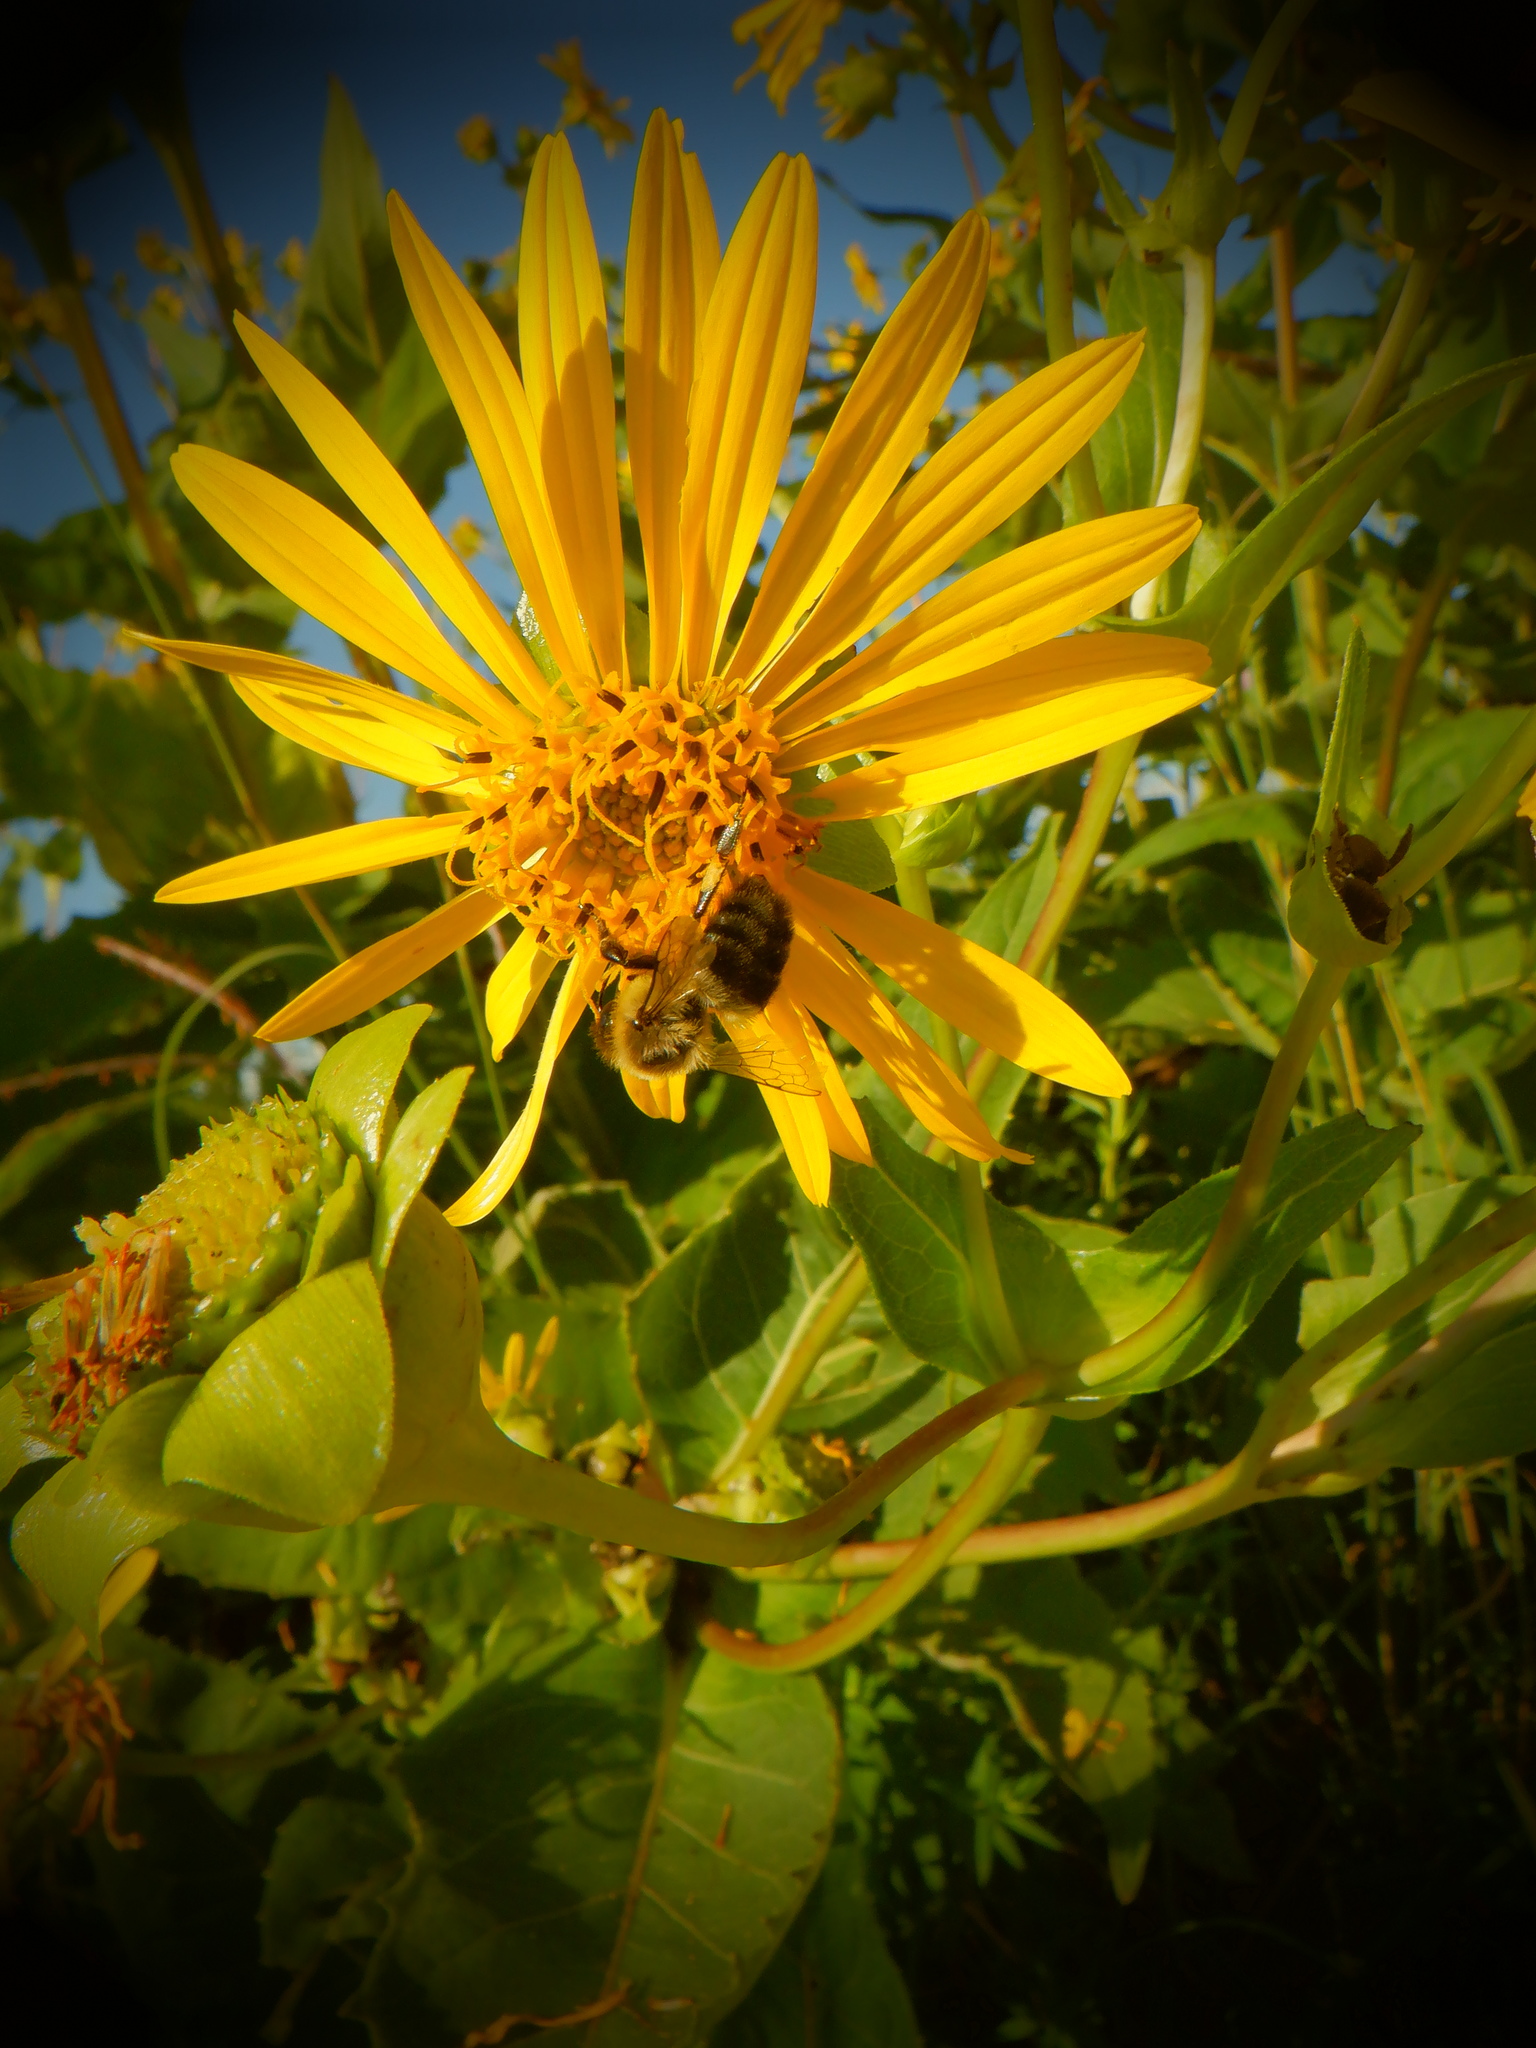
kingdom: Animalia
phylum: Arthropoda
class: Insecta
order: Hymenoptera
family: Apidae
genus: Bombus
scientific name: Bombus impatiens
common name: Common eastern bumble bee
